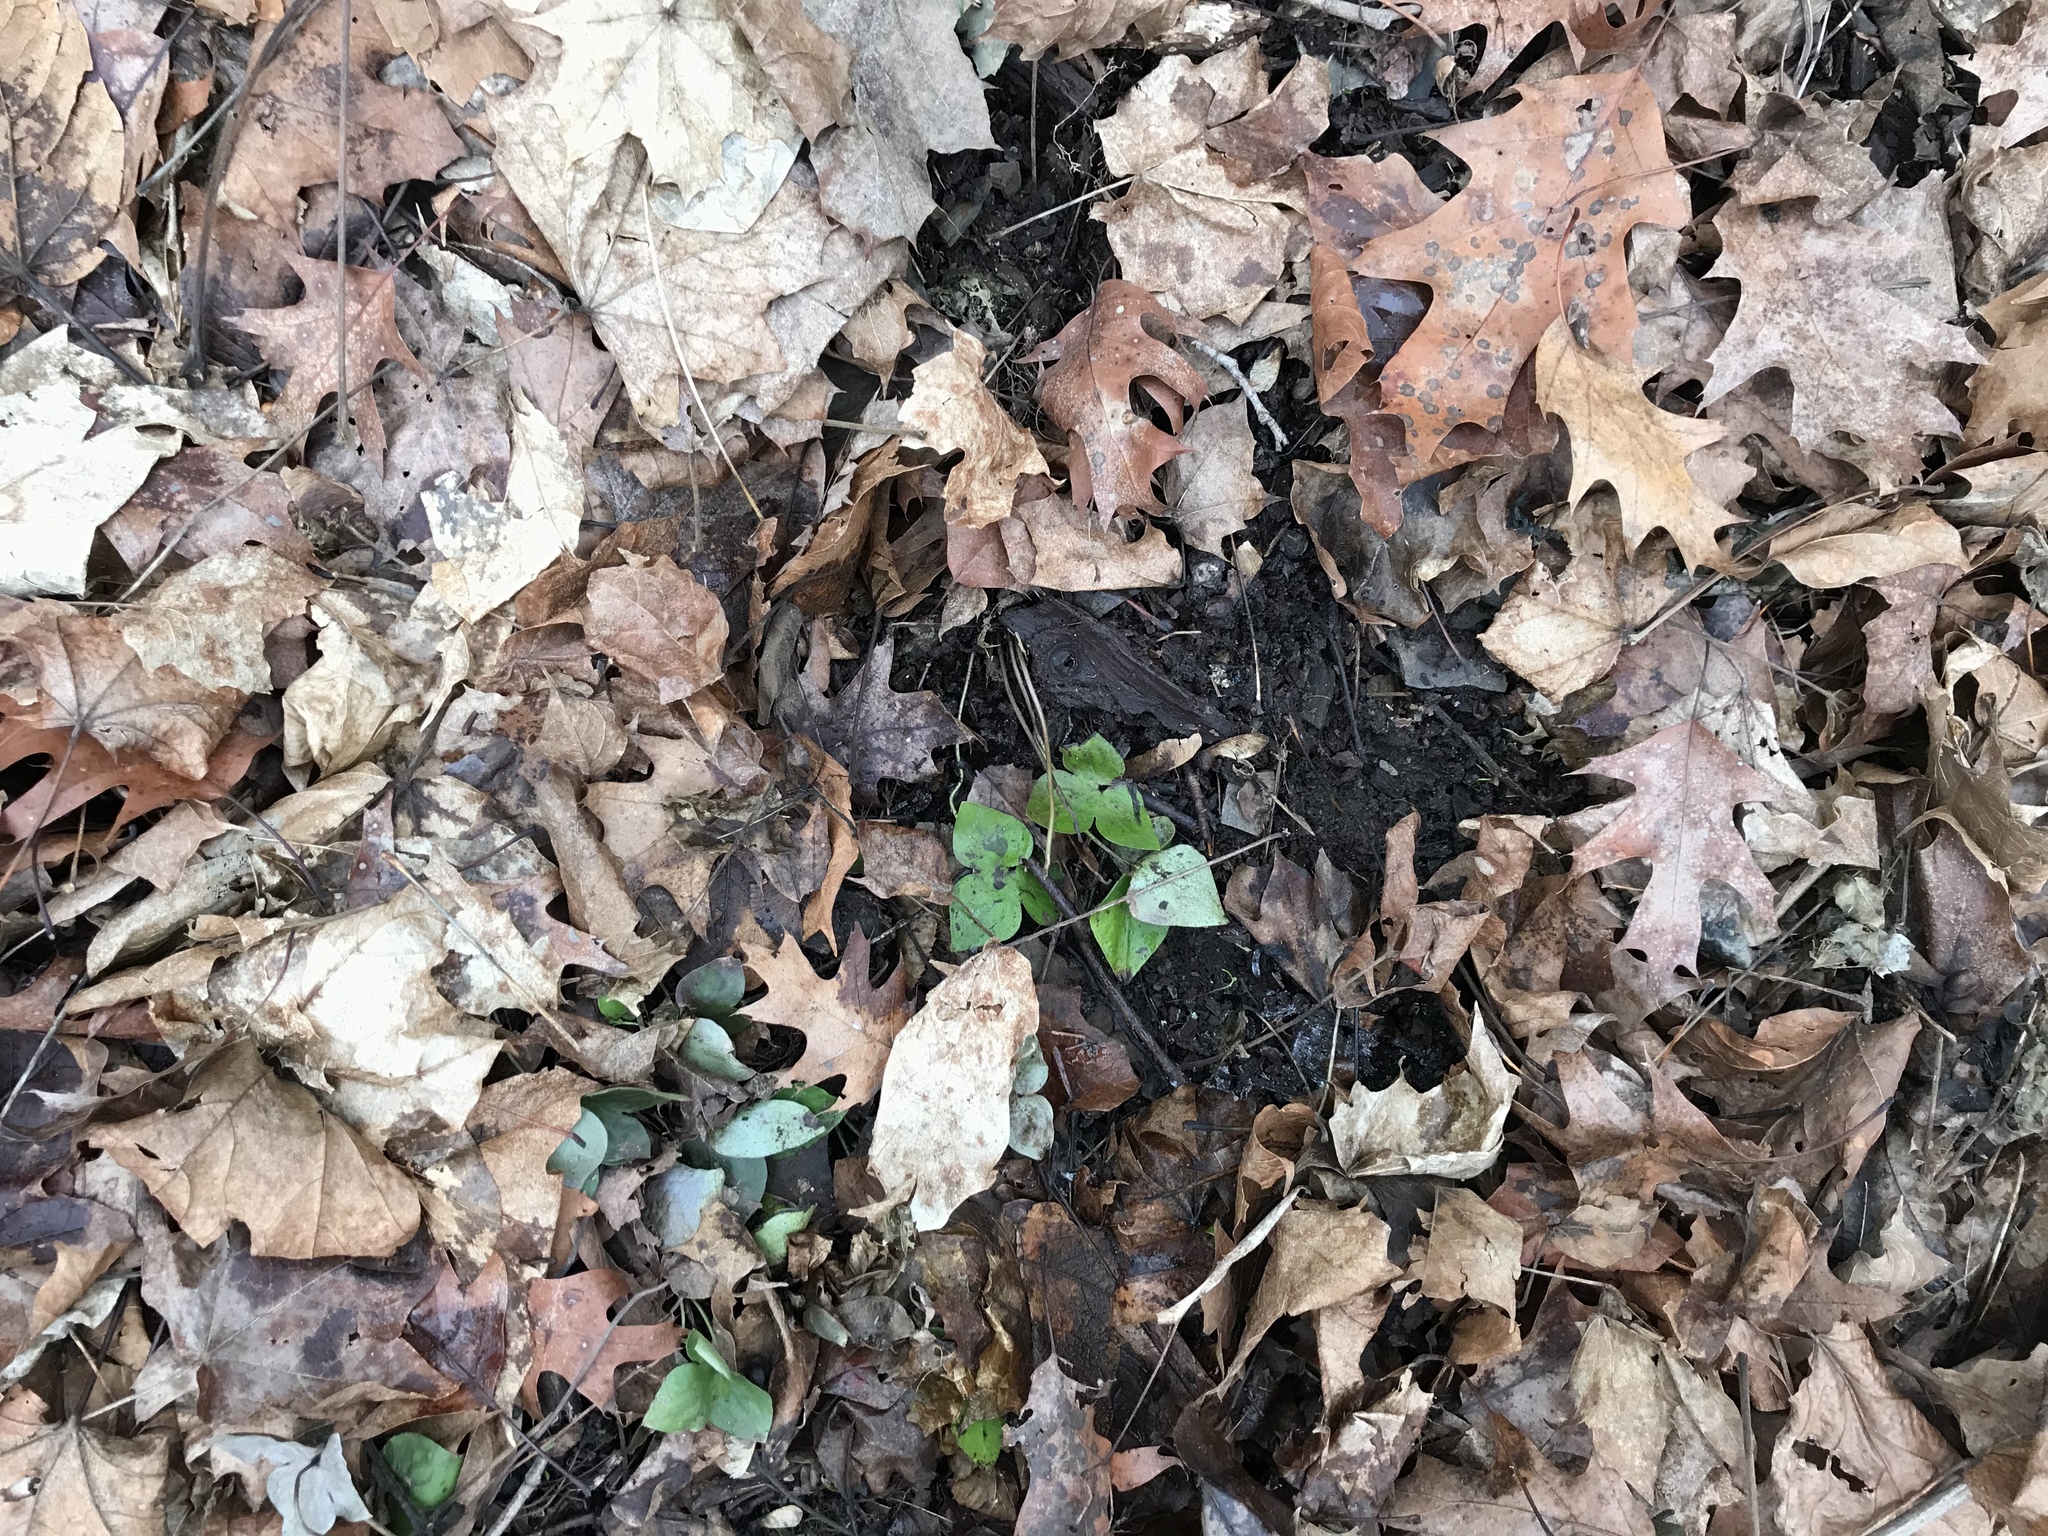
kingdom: Plantae
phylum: Tracheophyta
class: Magnoliopsida
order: Ranunculales
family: Ranunculaceae
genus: Hepatica
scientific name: Hepatica acutiloba
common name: Sharp-lobed hepatica
